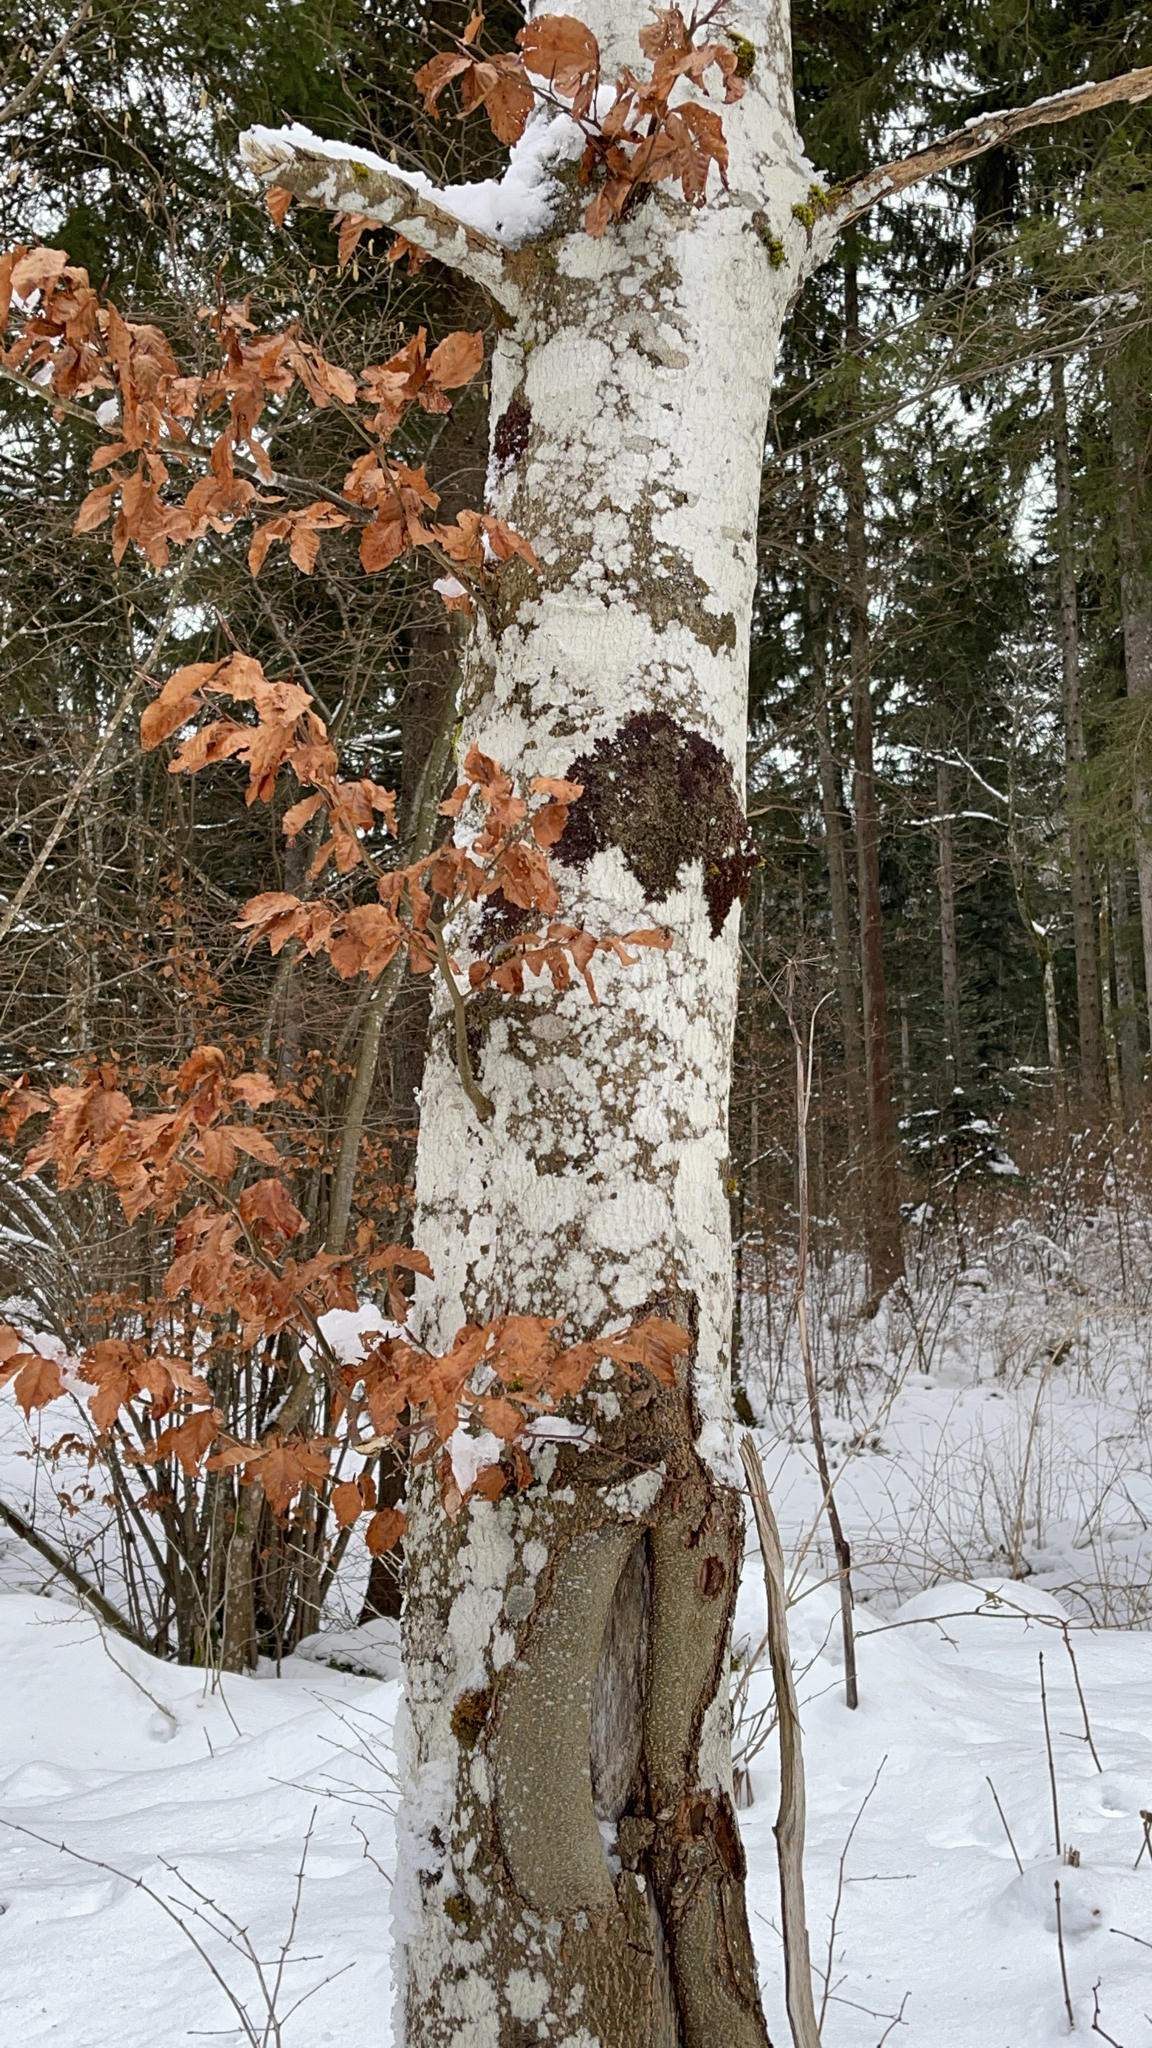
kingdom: Plantae
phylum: Tracheophyta
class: Magnoliopsida
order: Fagales
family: Fagaceae
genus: Fagus
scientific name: Fagus sylvatica
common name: Beech
